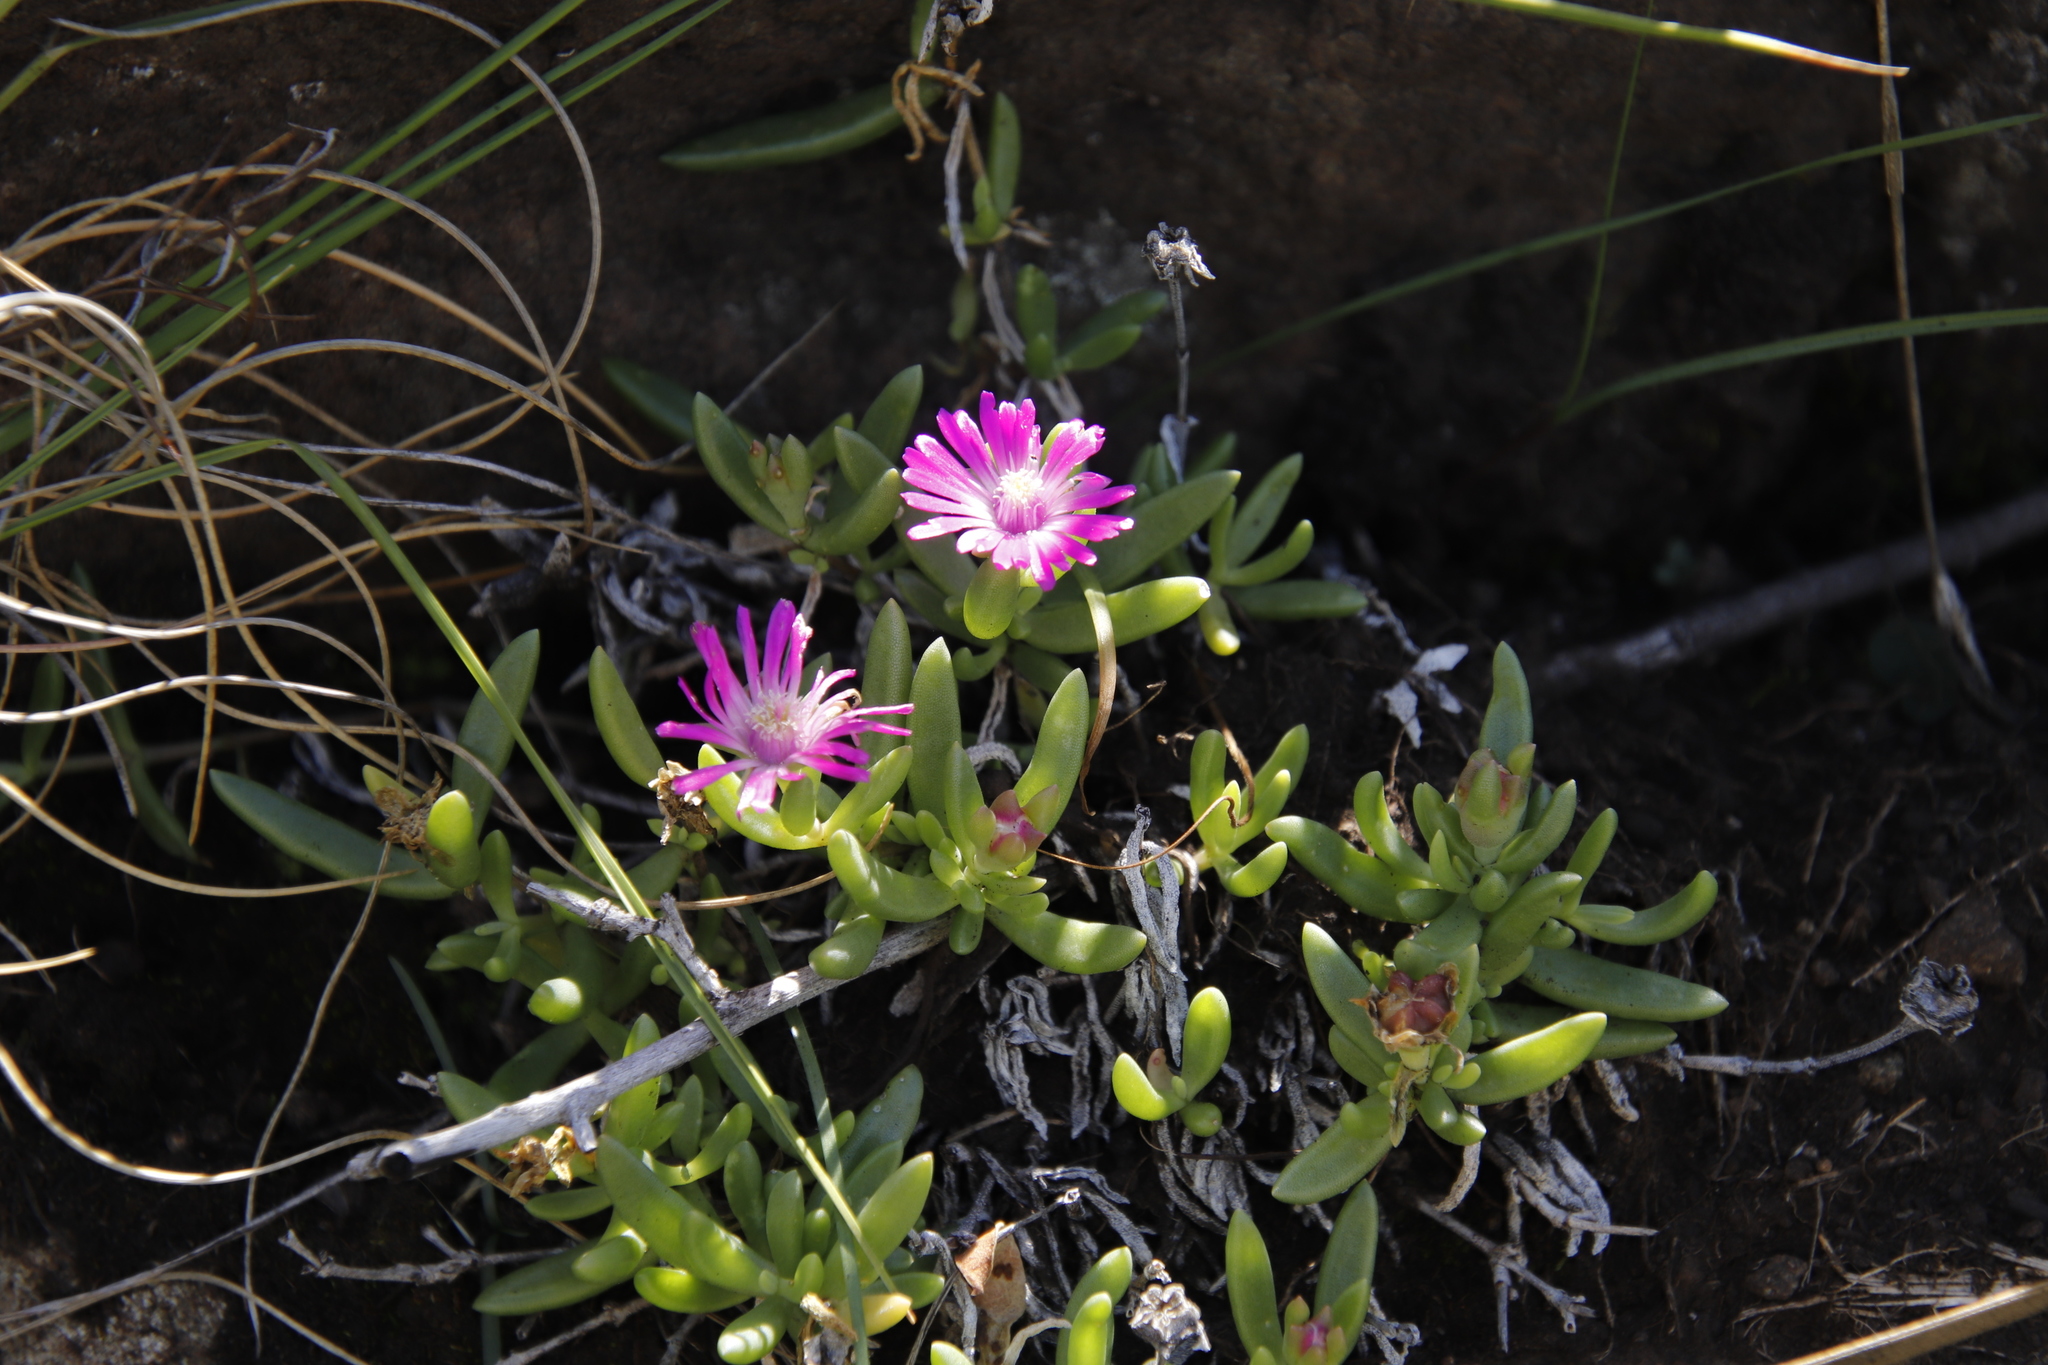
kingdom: Plantae
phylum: Tracheophyta
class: Magnoliopsida
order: Caryophyllales
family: Aizoaceae
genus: Delosperma
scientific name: Delosperma lavisiae
